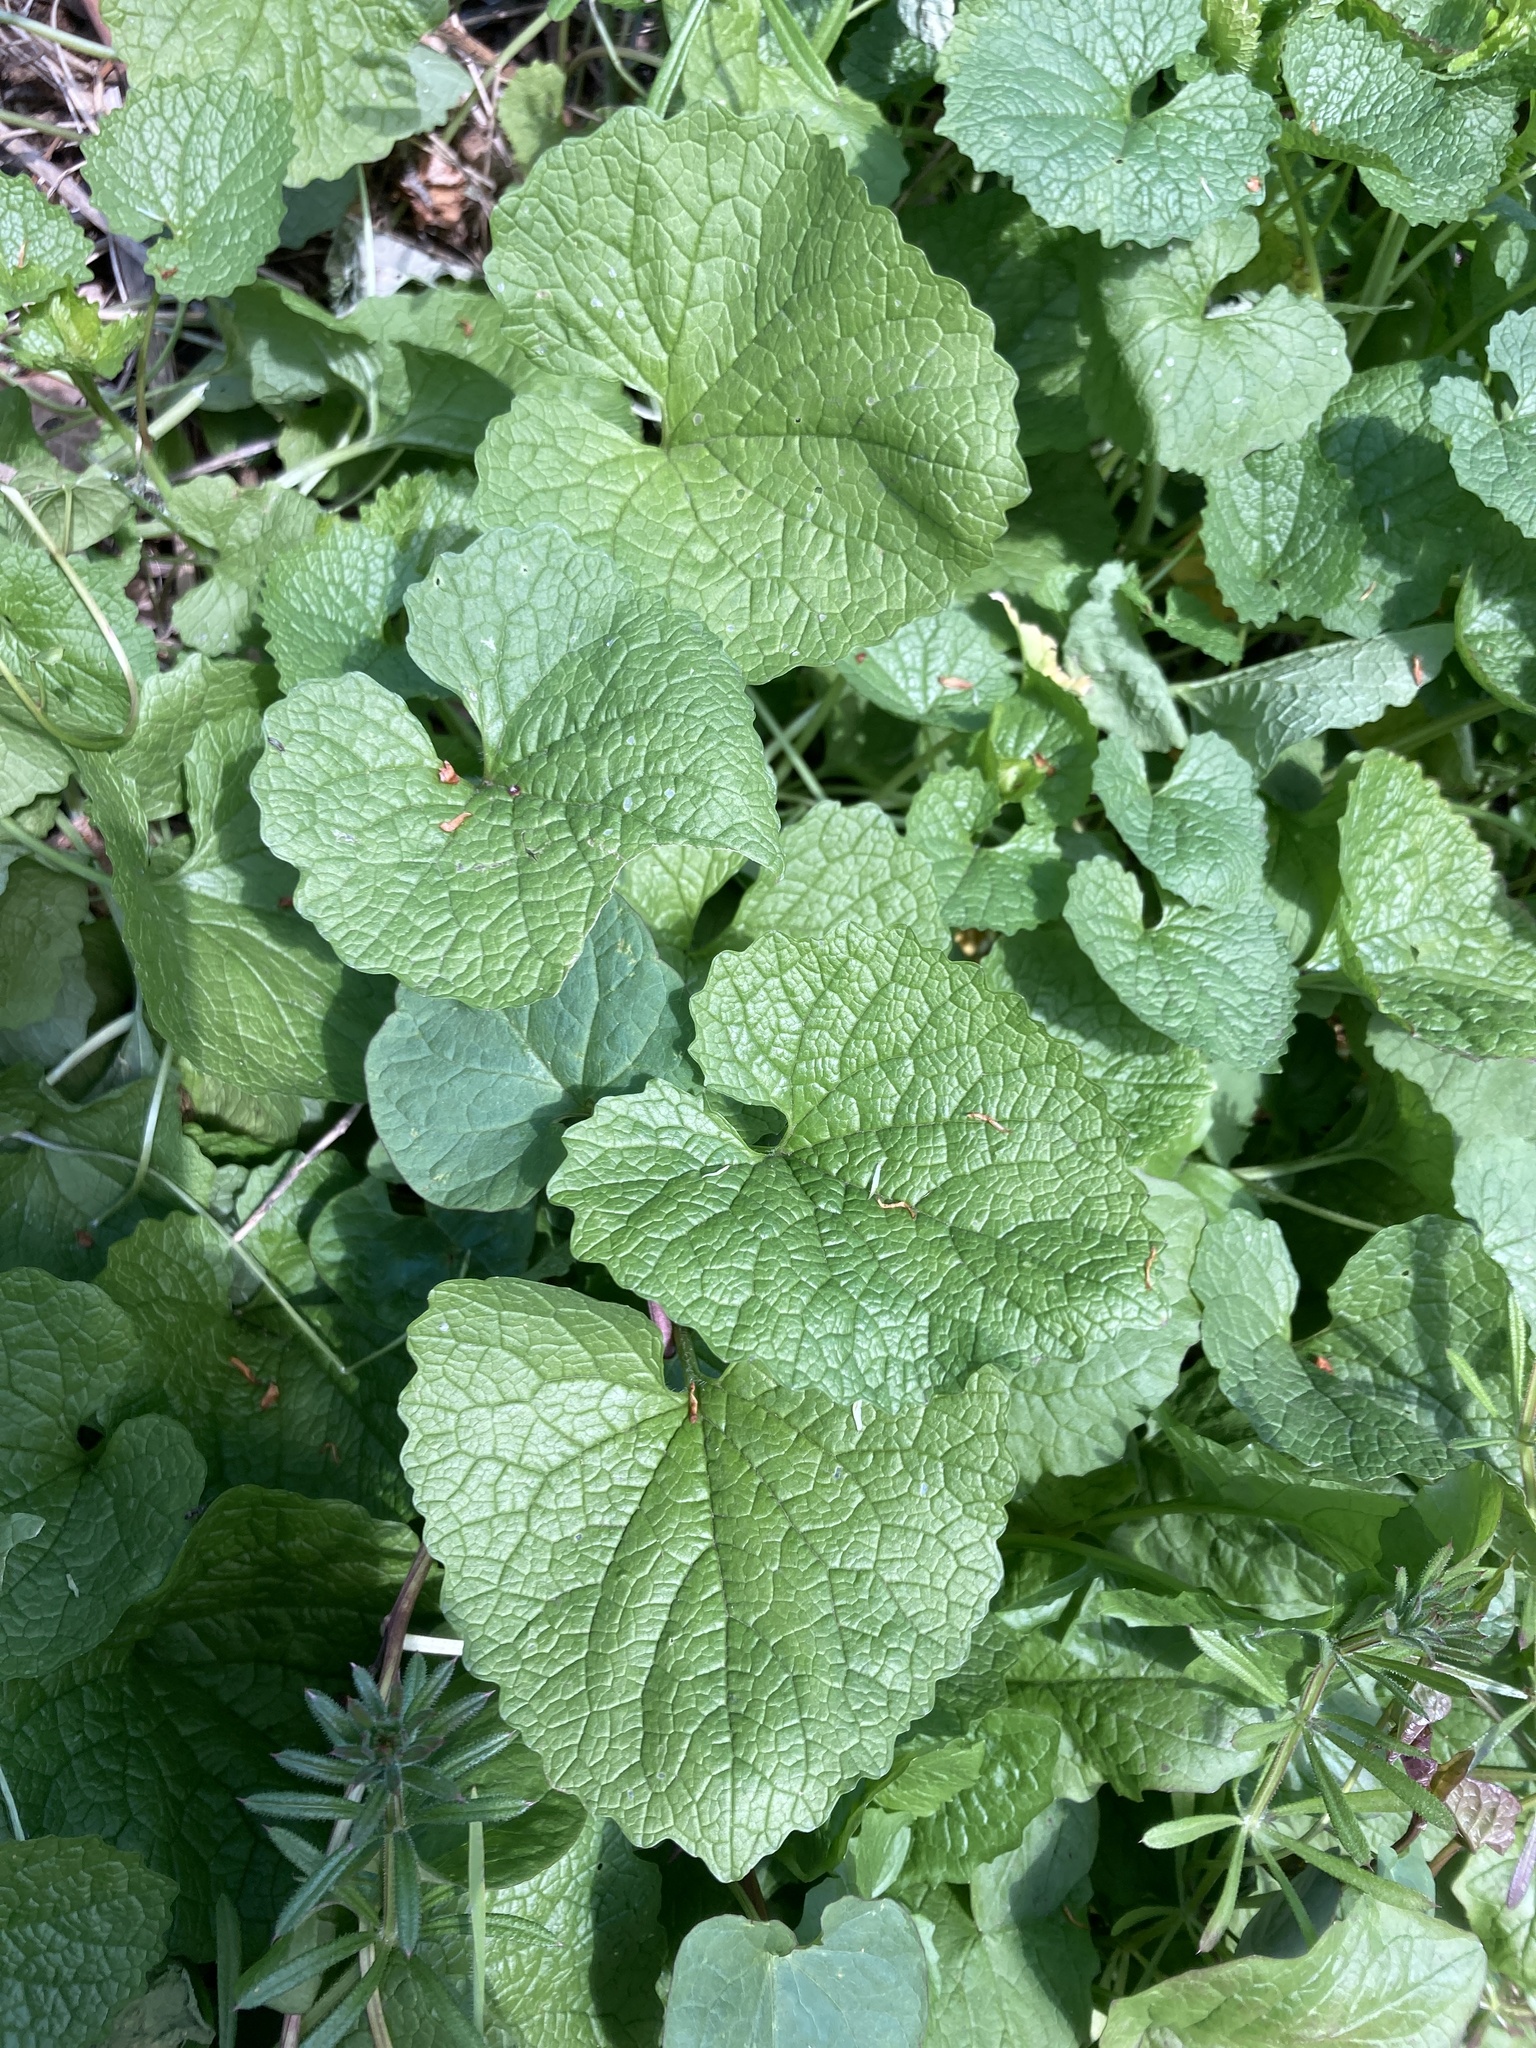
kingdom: Plantae
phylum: Tracheophyta
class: Magnoliopsida
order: Brassicales
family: Brassicaceae
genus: Alliaria
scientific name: Alliaria petiolata
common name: Garlic mustard
